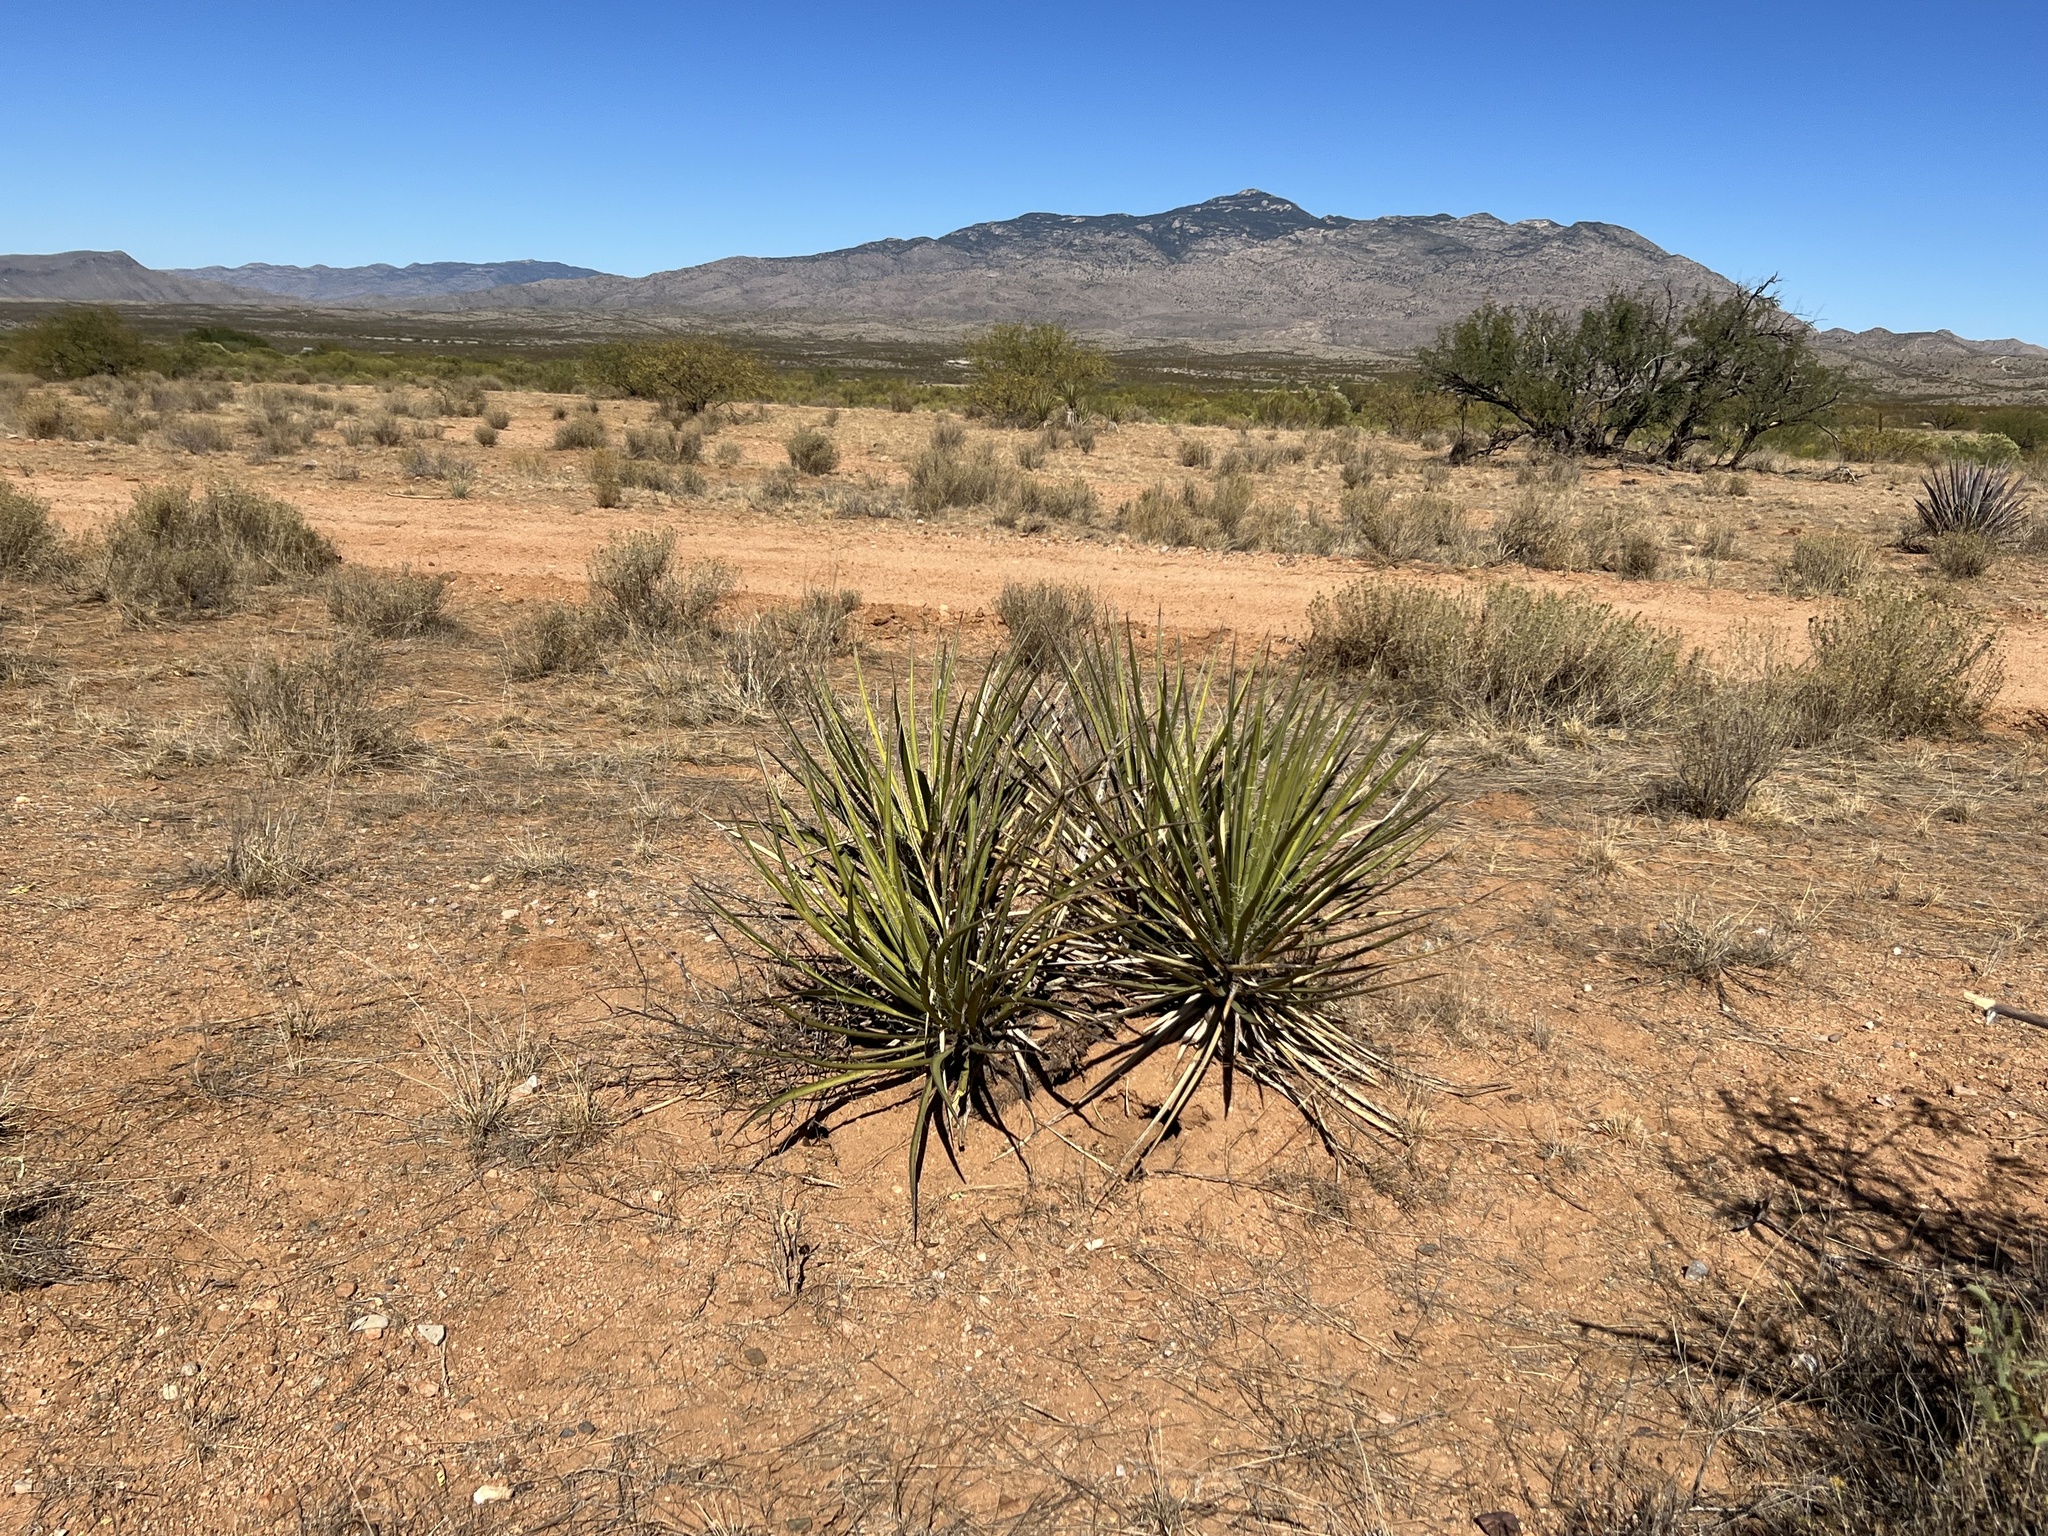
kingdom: Plantae
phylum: Tracheophyta
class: Liliopsida
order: Asparagales
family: Asparagaceae
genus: Yucca
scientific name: Yucca baccata
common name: Banana yucca
